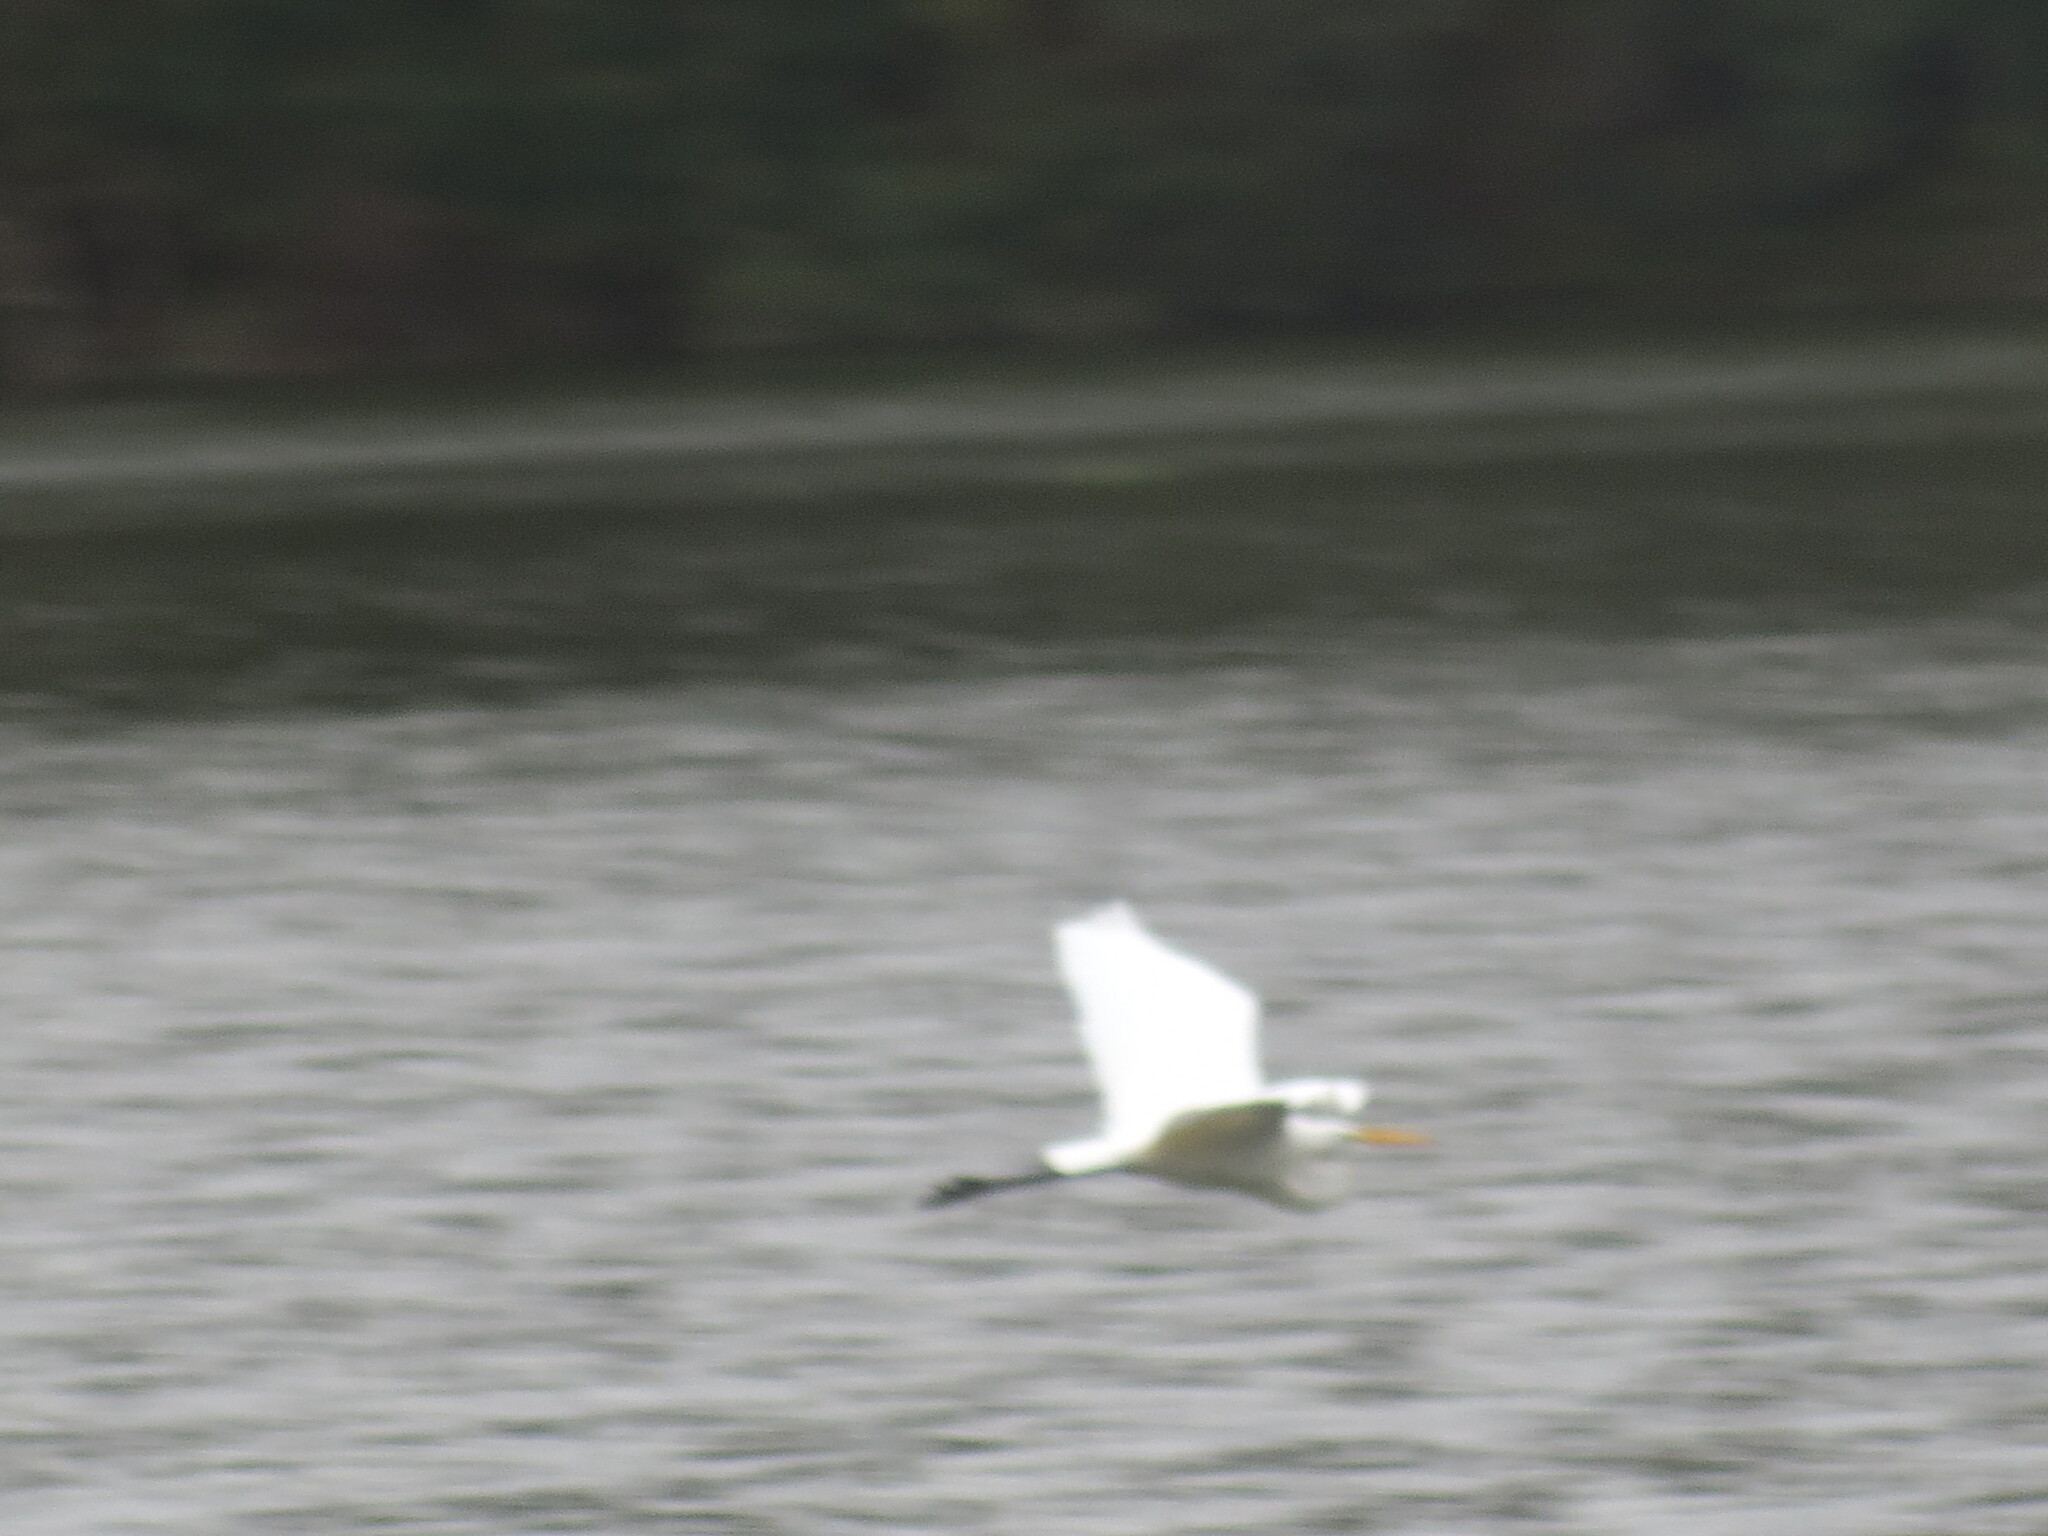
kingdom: Animalia
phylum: Chordata
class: Aves
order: Pelecaniformes
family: Ardeidae
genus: Ardea
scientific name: Ardea alba
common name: Great egret
